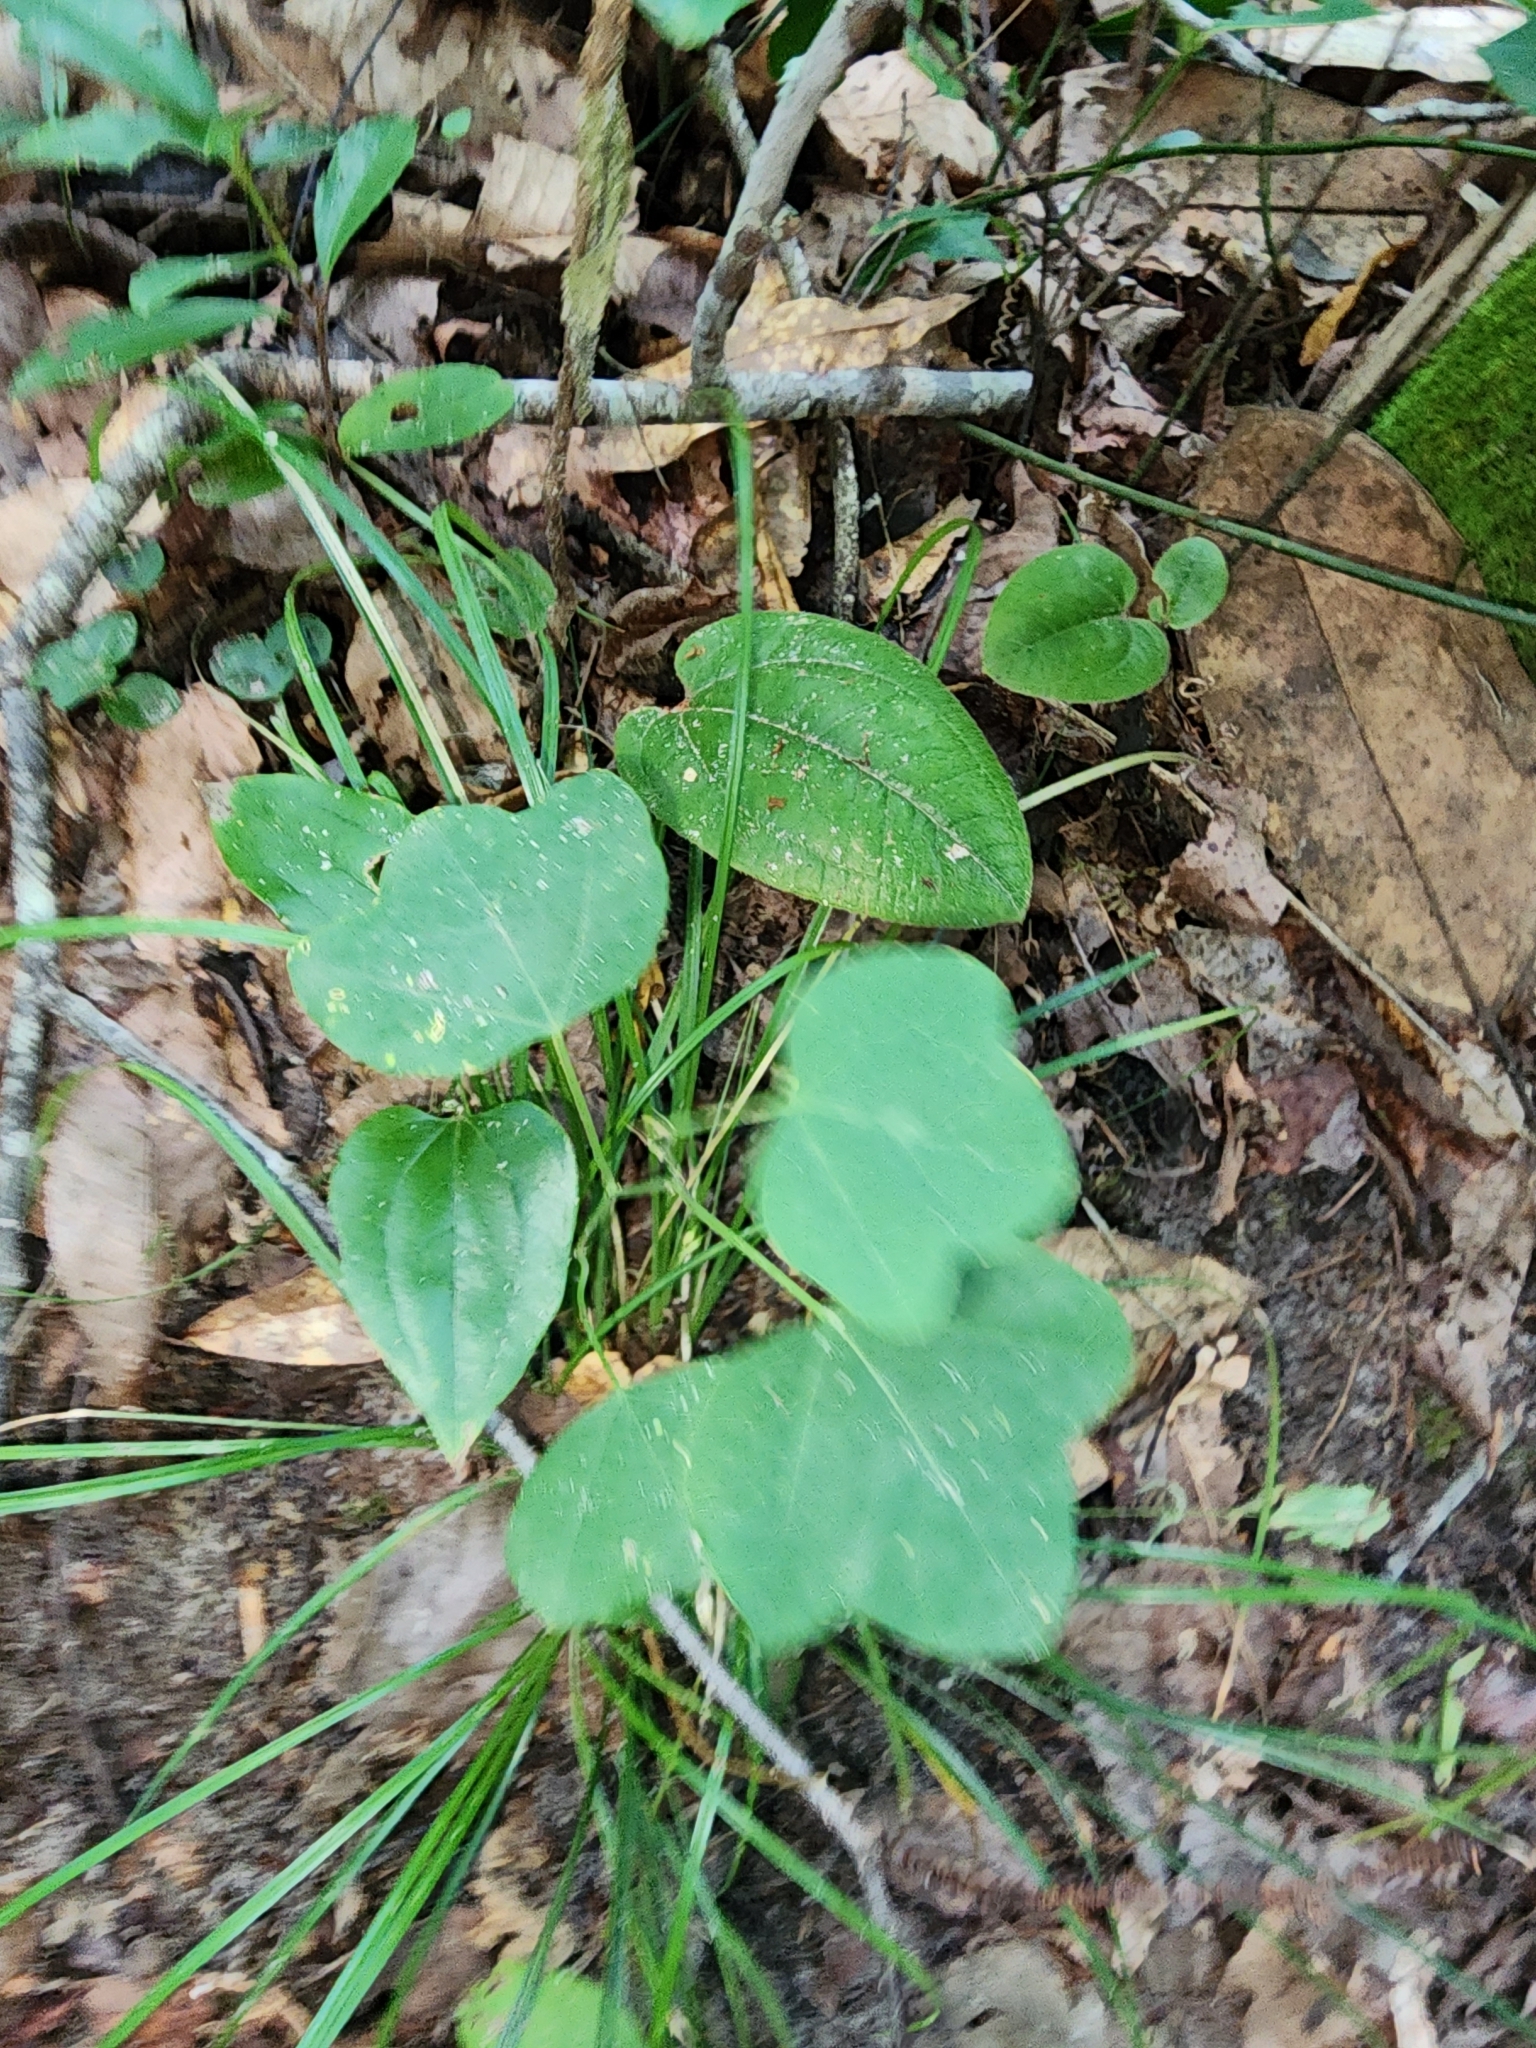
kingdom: Plantae
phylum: Tracheophyta
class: Magnoliopsida
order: Malpighiales
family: Passifloraceae
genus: Passiflora
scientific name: Passiflora lutea
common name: Yellow passionflower
